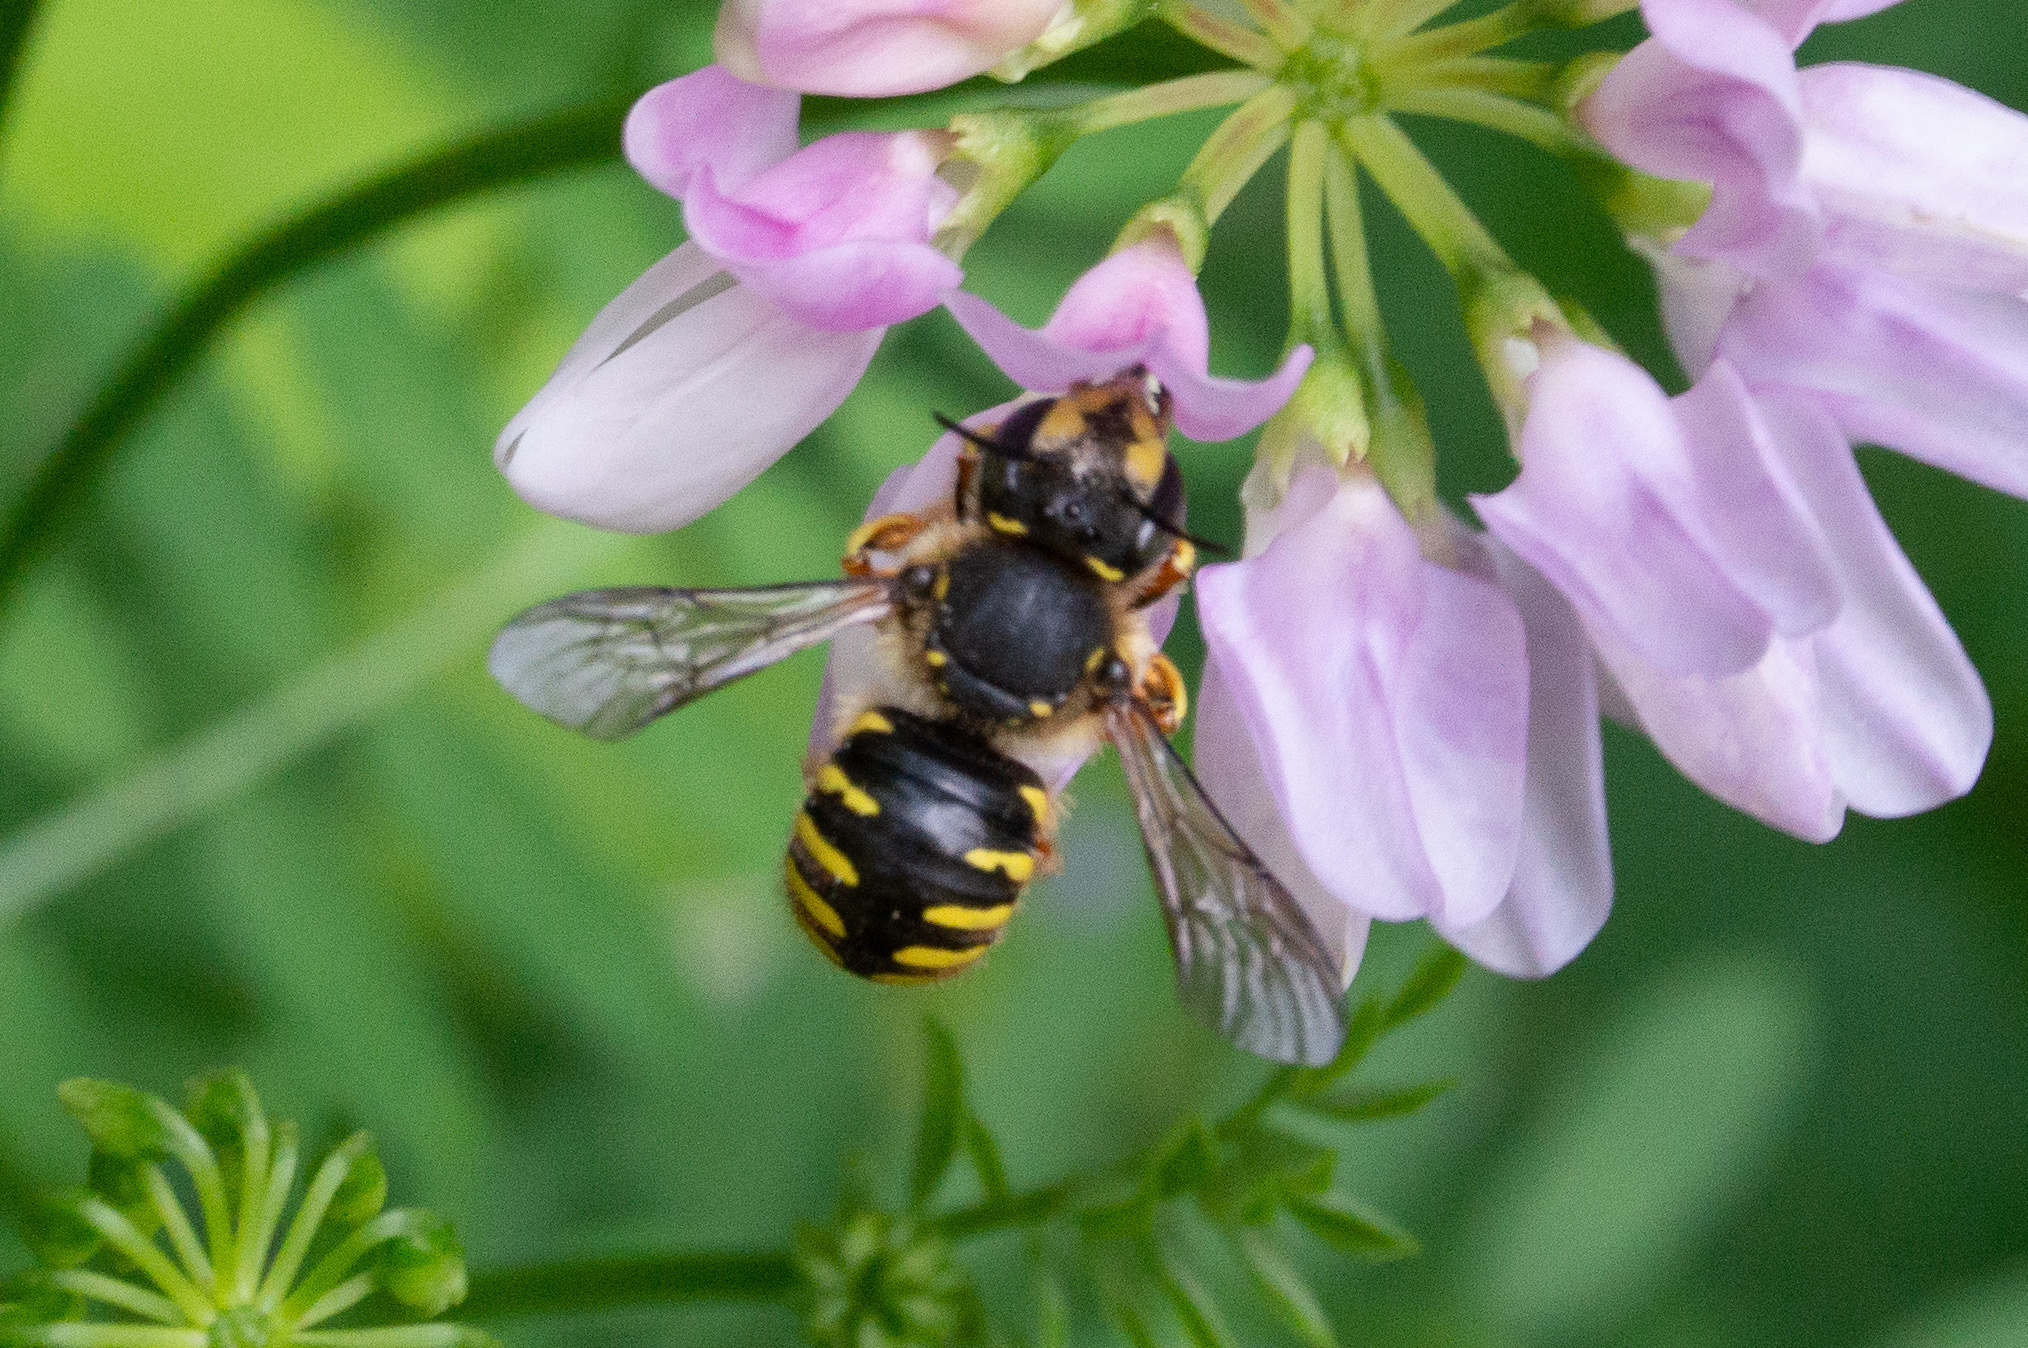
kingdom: Animalia
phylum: Arthropoda
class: Insecta
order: Hymenoptera
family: Megachilidae
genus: Anthidium
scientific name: Anthidium manicatum
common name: Wool carder bee
